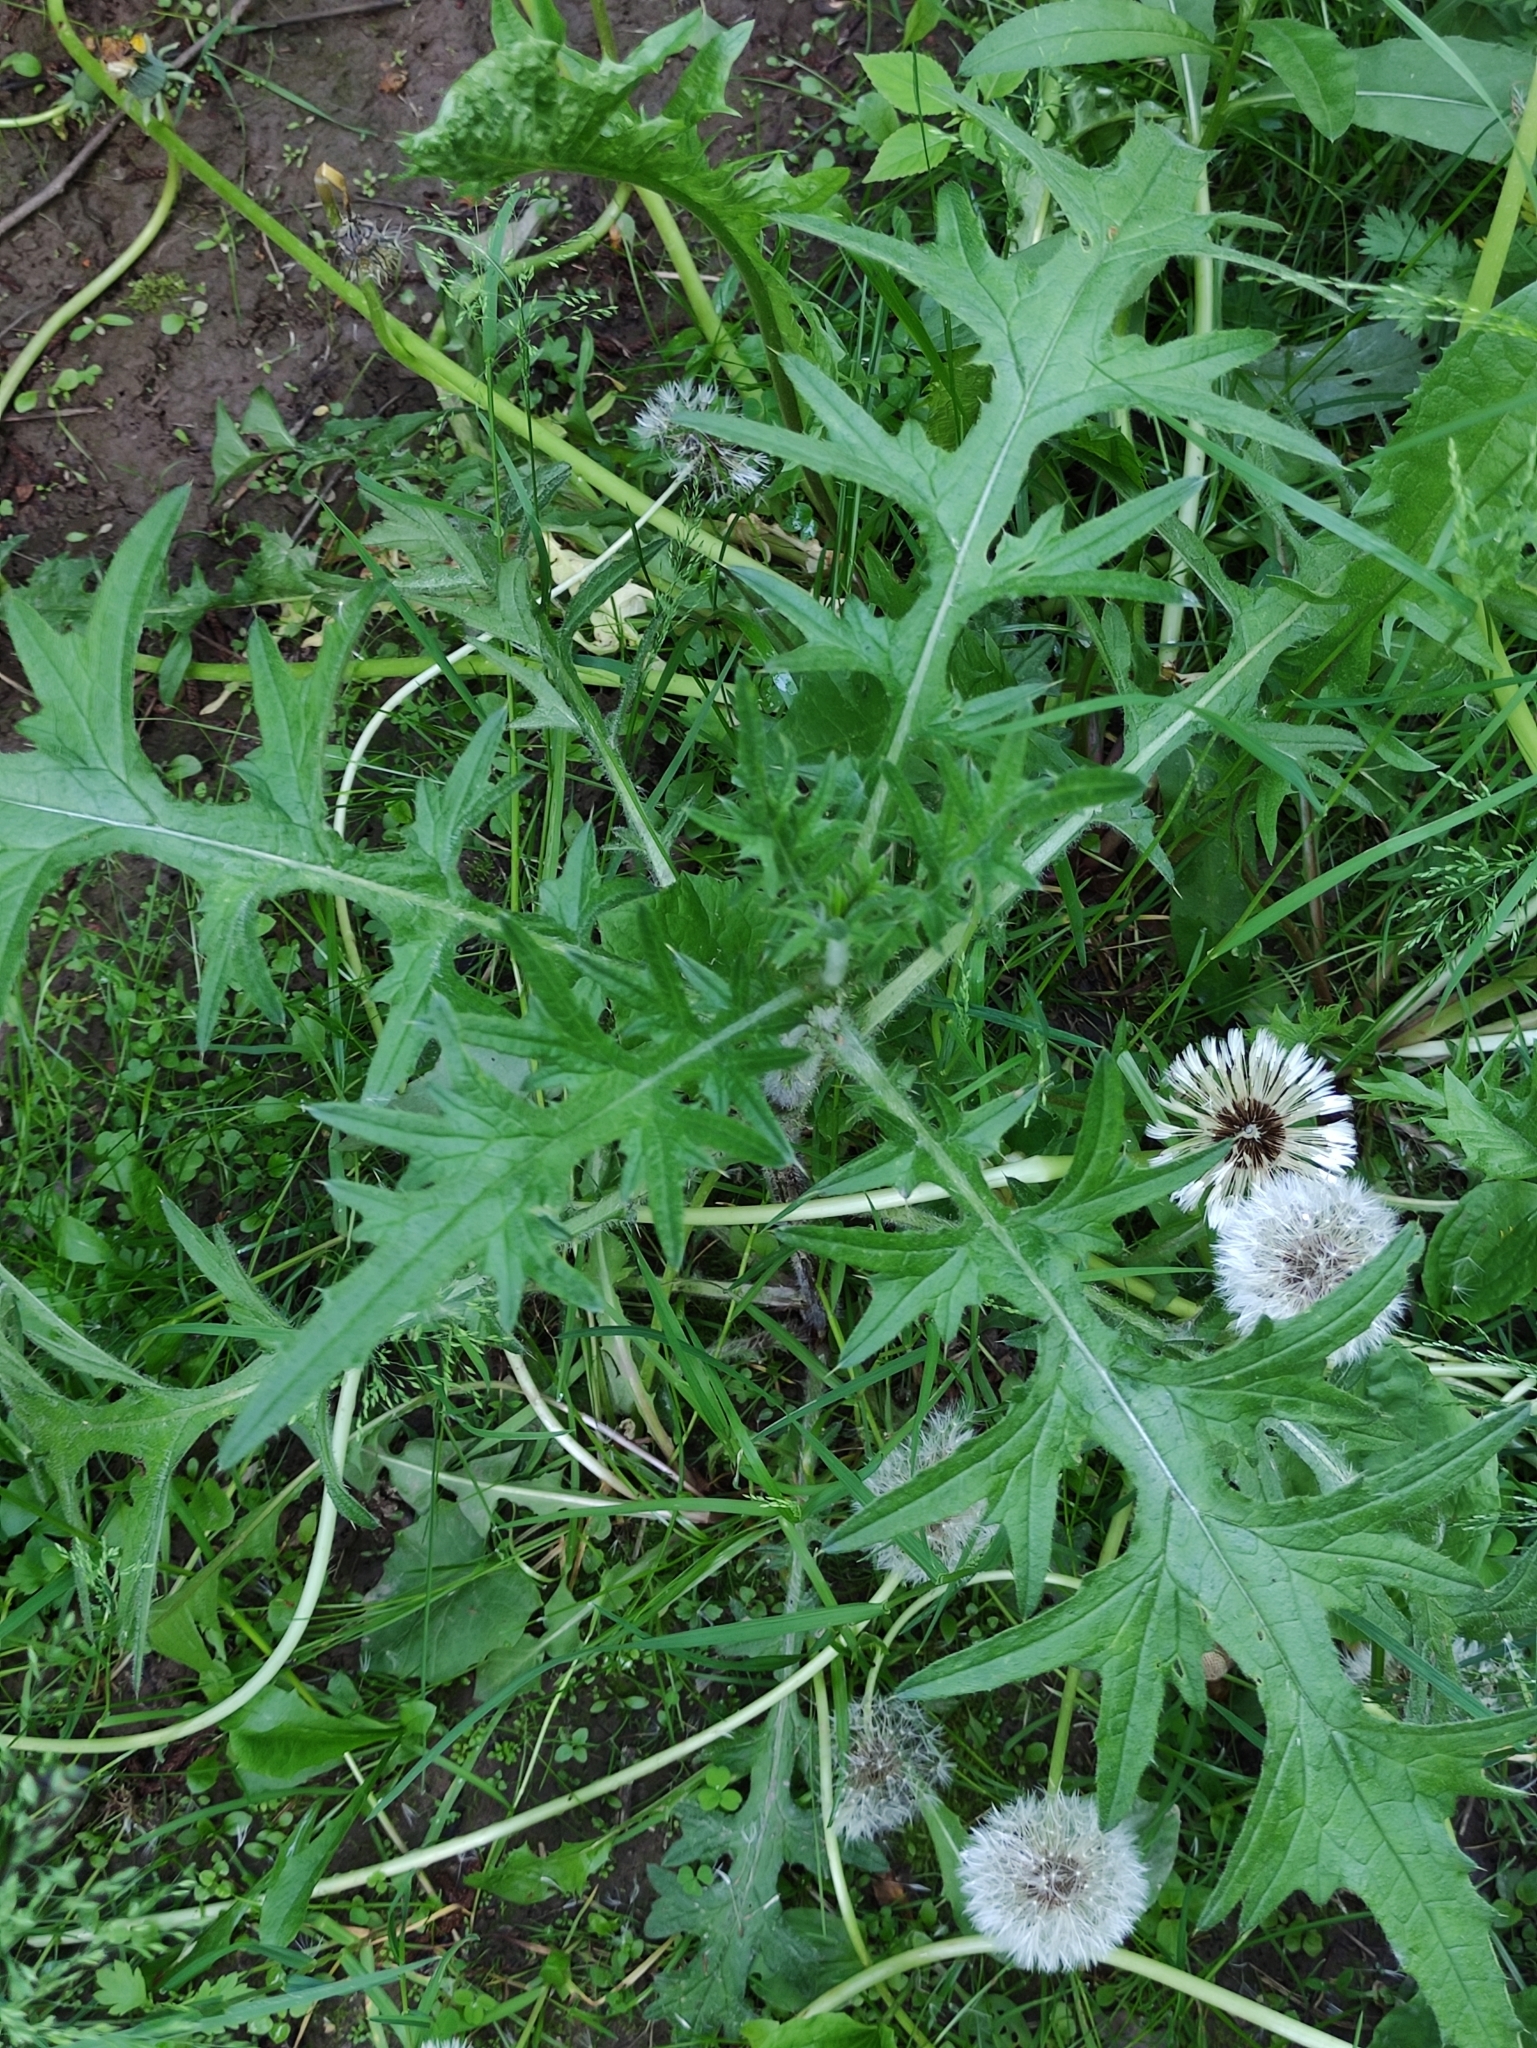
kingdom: Plantae
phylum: Tracheophyta
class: Magnoliopsida
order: Asterales
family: Asteraceae
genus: Cirsium
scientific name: Cirsium vulgare
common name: Bull thistle
